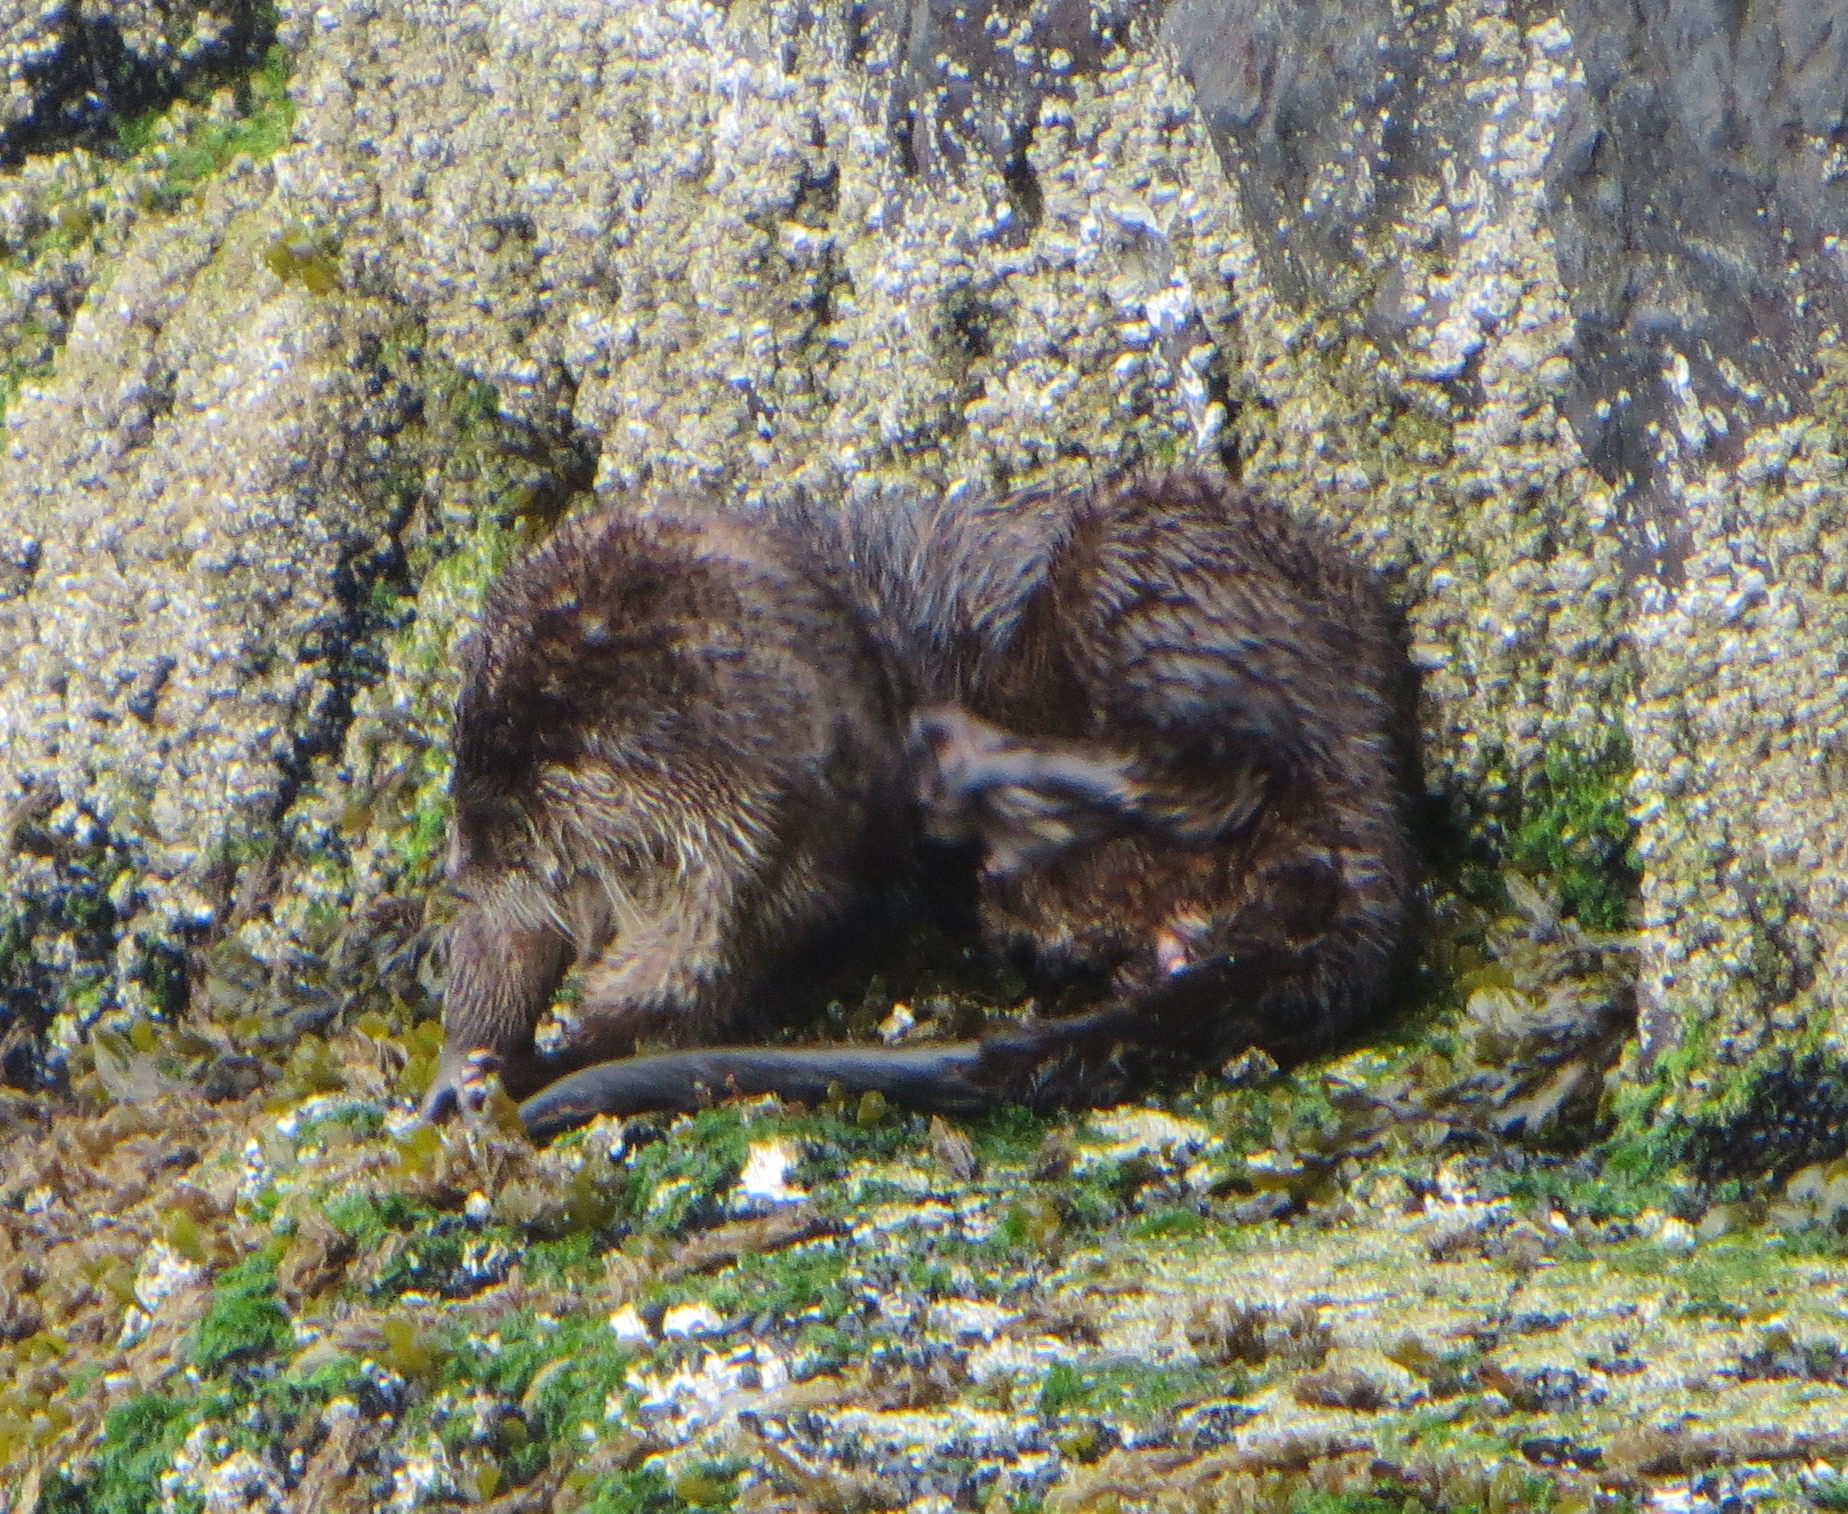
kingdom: Animalia
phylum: Chordata
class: Mammalia
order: Carnivora
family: Mustelidae
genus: Lontra
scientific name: Lontra canadensis
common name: North american river otter
